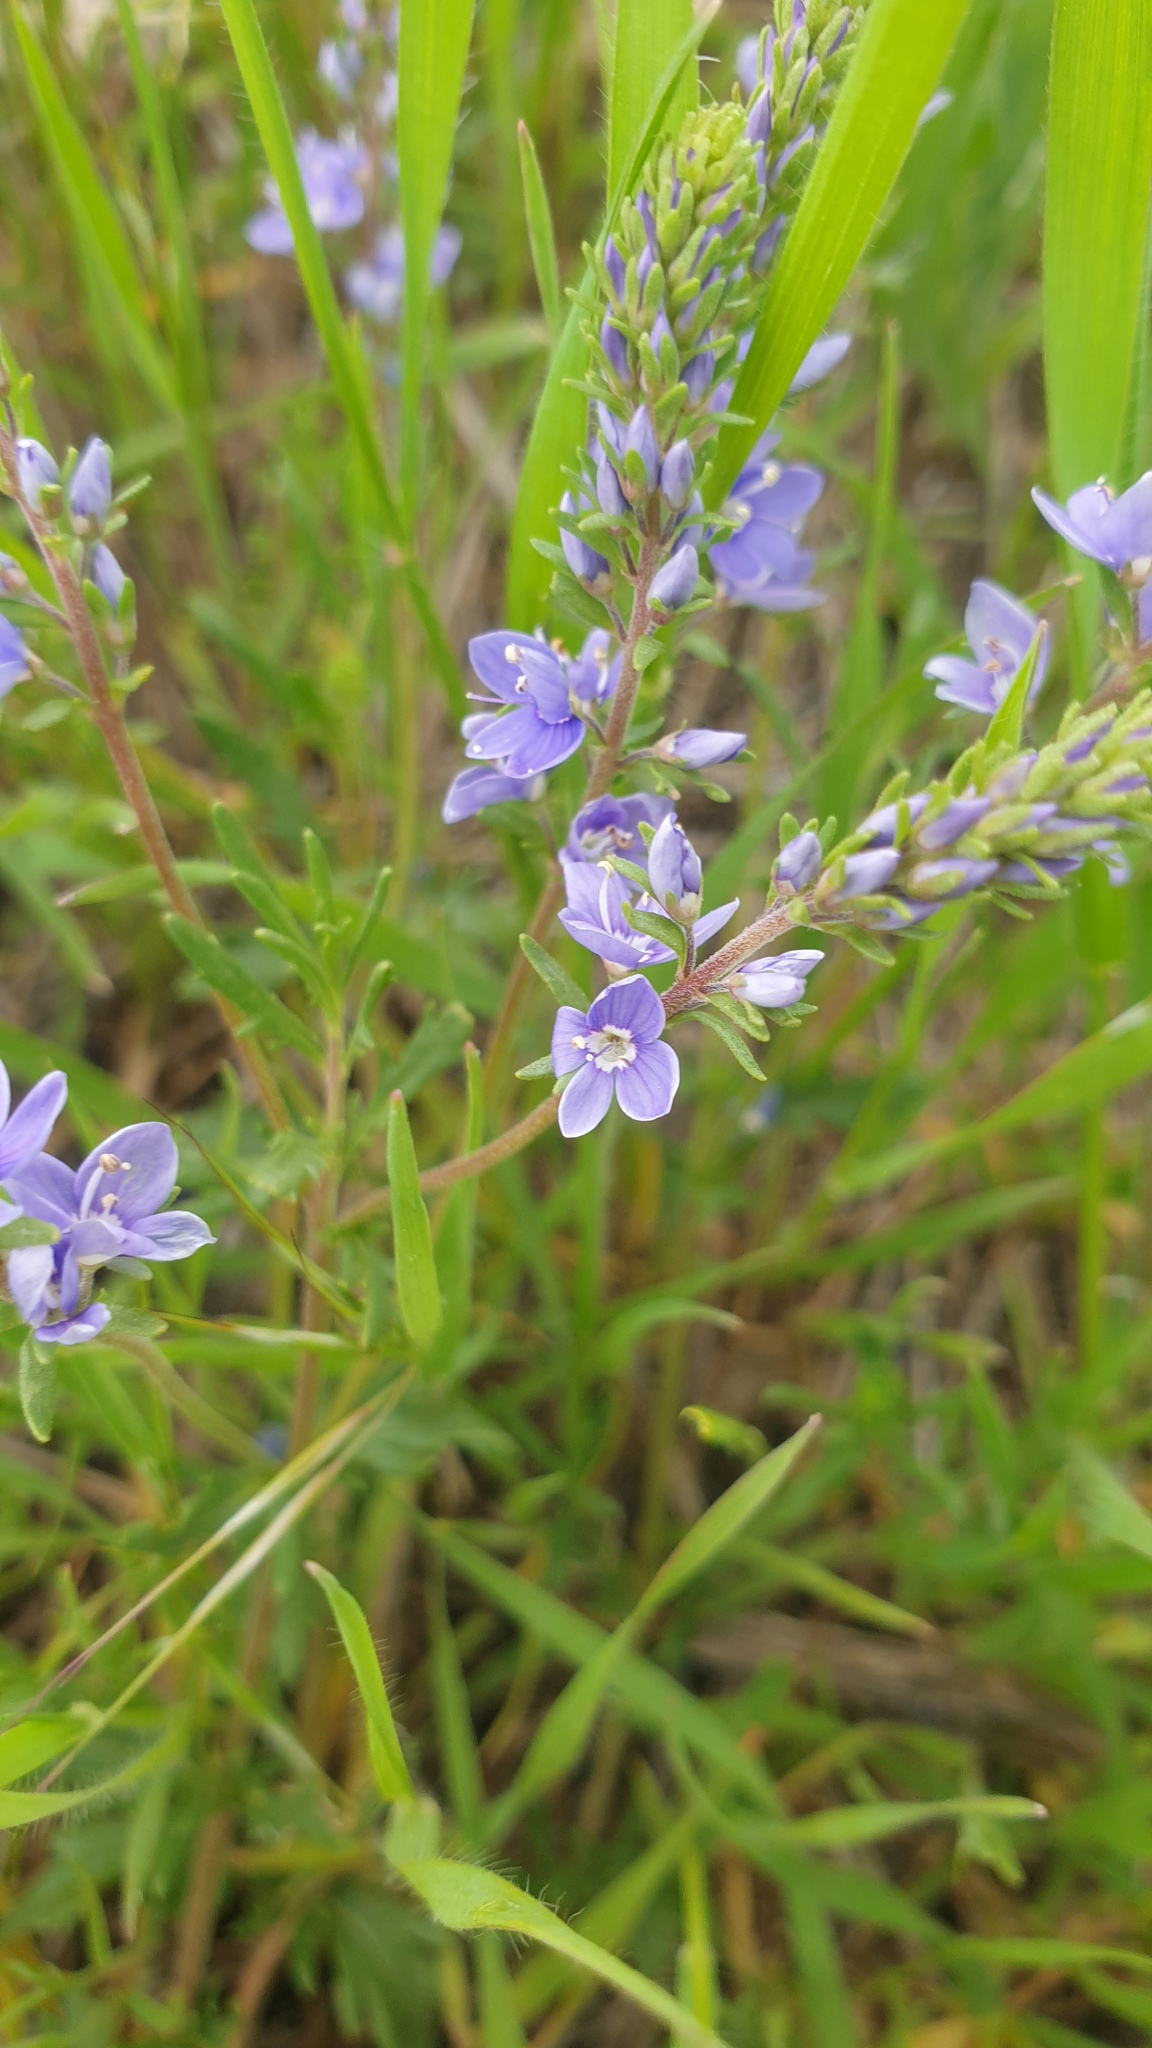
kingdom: Plantae
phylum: Tracheophyta
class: Magnoliopsida
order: Lamiales
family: Plantaginaceae
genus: Veronica
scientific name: Veronica orientalis
